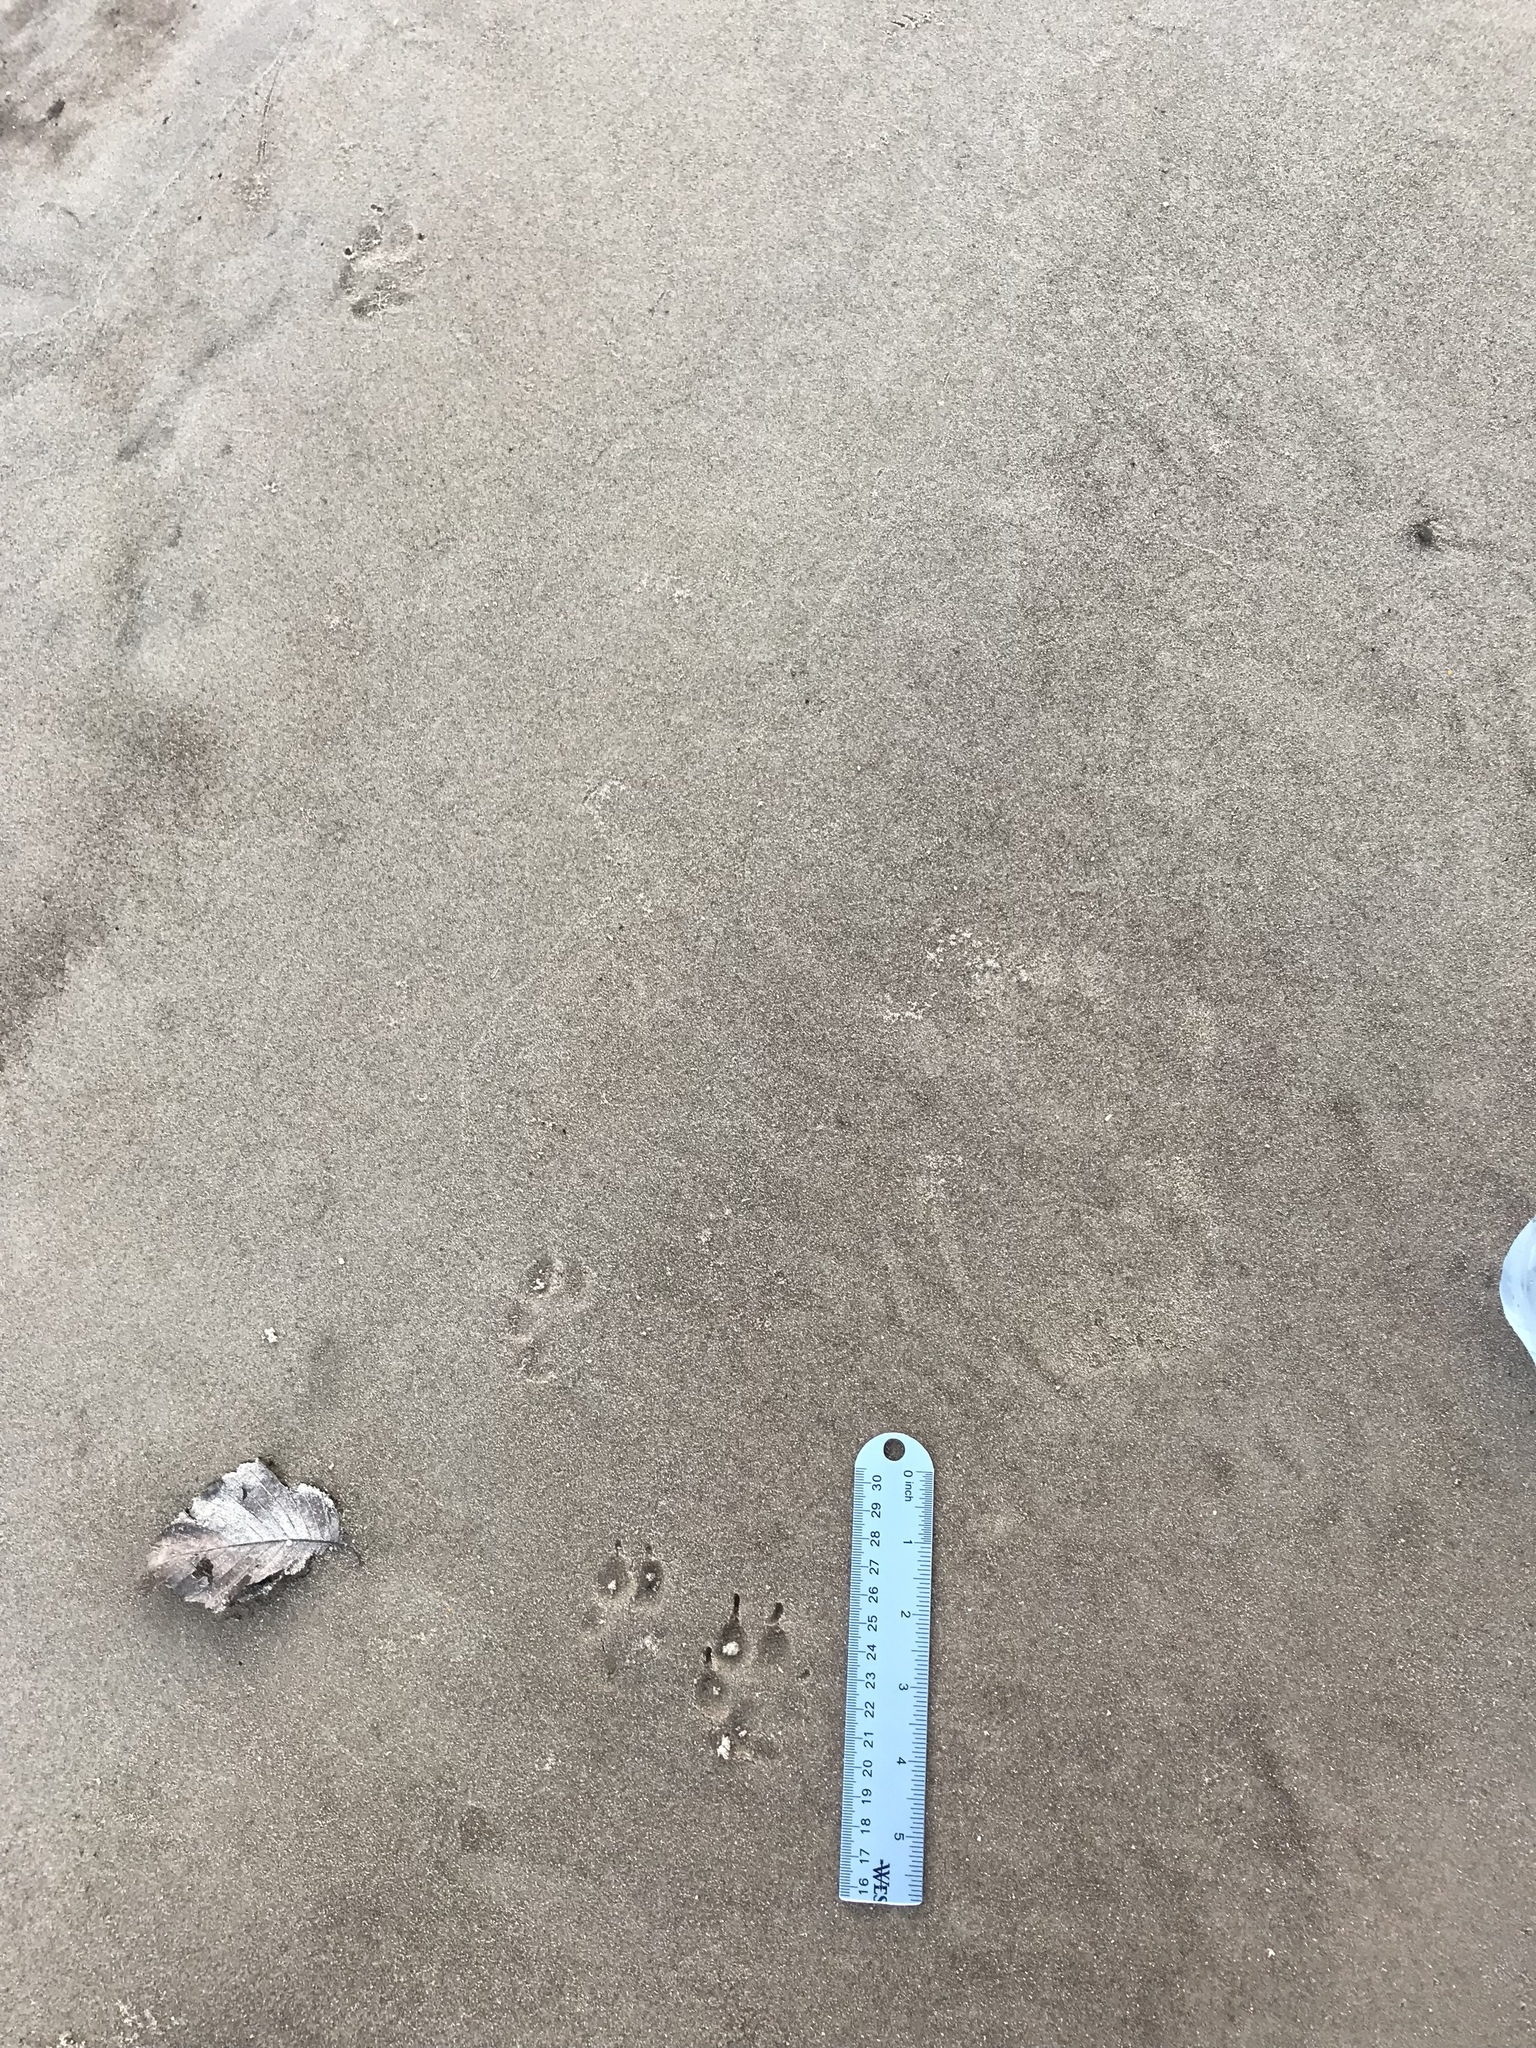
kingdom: Animalia
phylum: Chordata
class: Mammalia
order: Carnivora
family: Canidae
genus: Vulpes
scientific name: Vulpes vulpes
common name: Red fox
